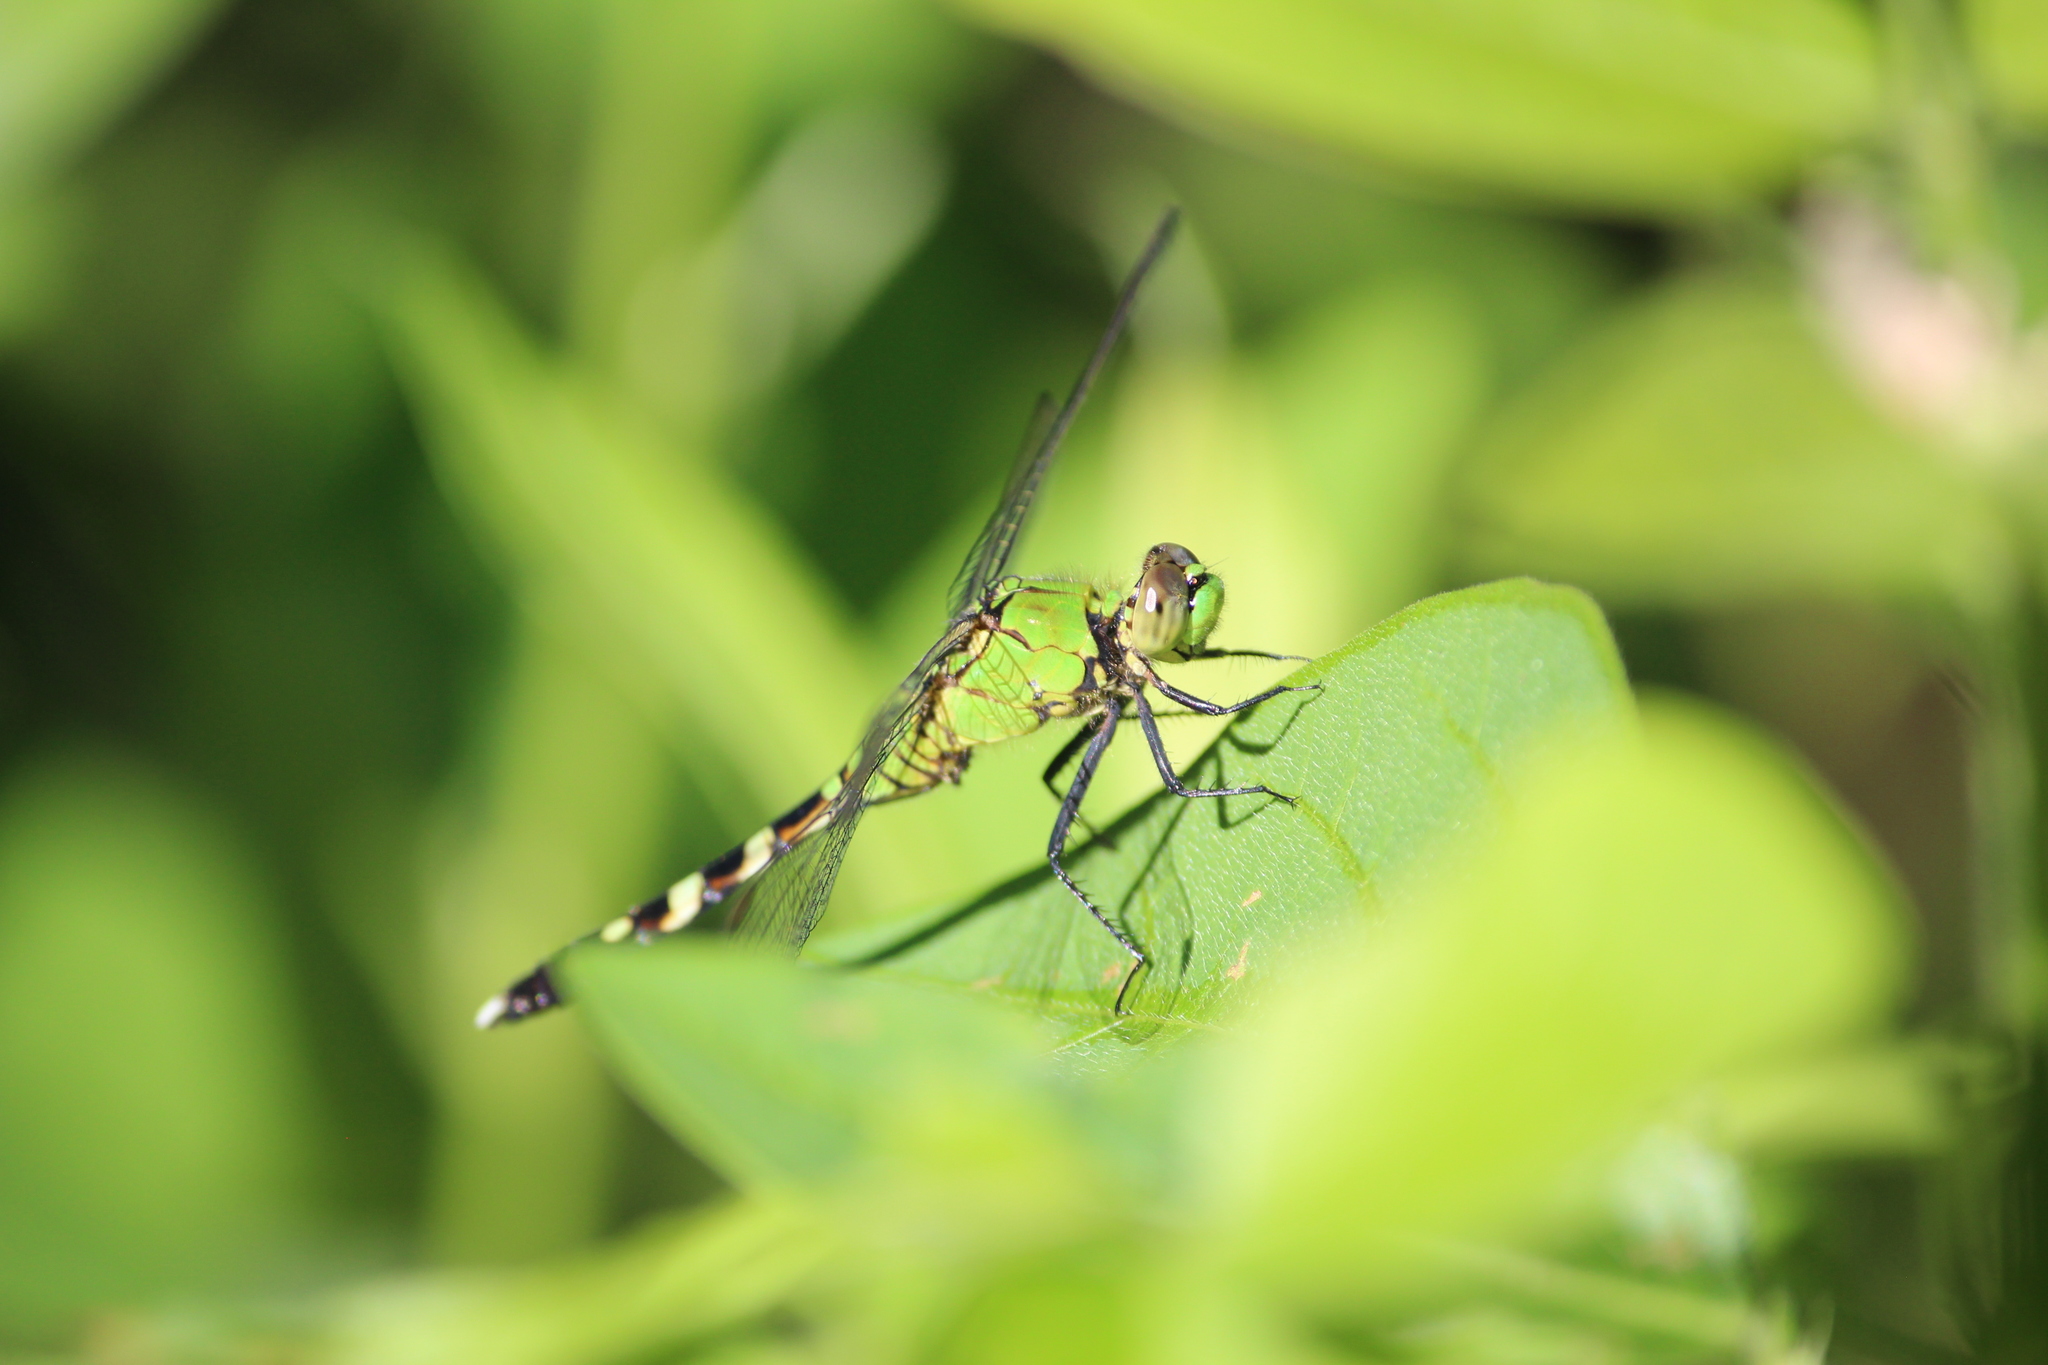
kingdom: Animalia
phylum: Arthropoda
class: Insecta
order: Odonata
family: Libellulidae
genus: Erythemis
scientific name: Erythemis simplicicollis
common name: Eastern pondhawk
